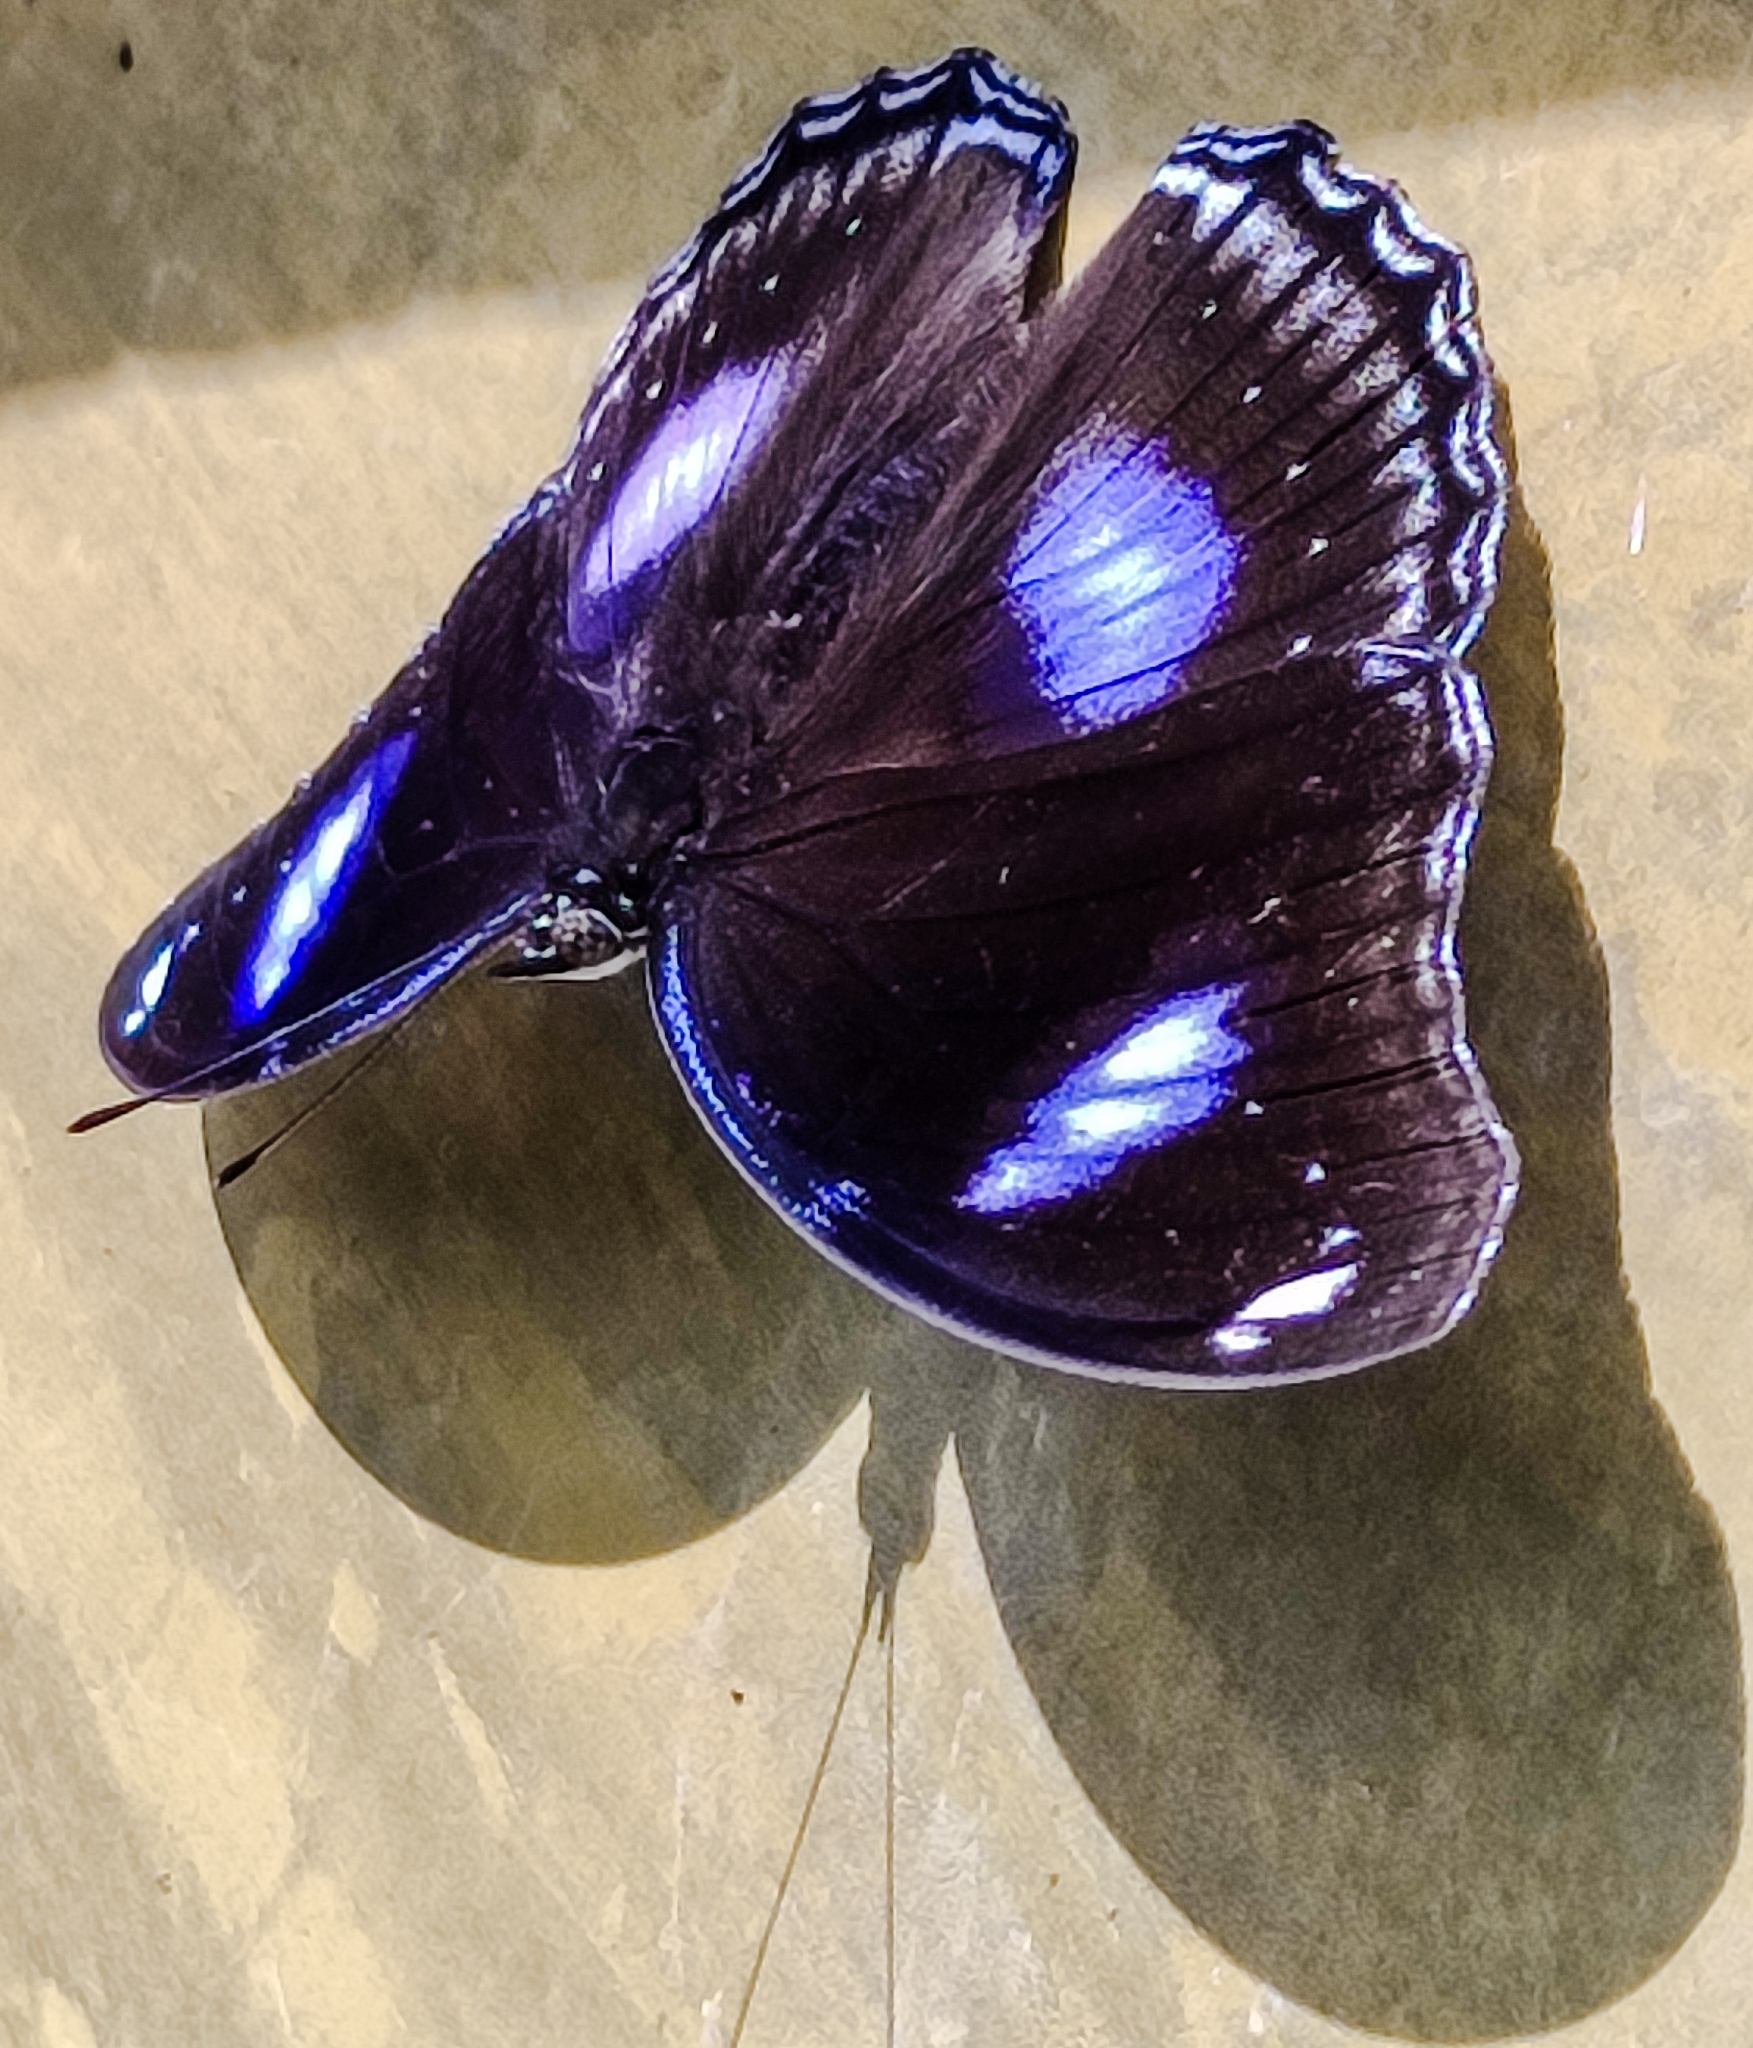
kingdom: Animalia
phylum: Arthropoda
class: Insecta
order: Lepidoptera
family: Nymphalidae
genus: Hypolimnas
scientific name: Hypolimnas bolina
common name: Great eggfly
